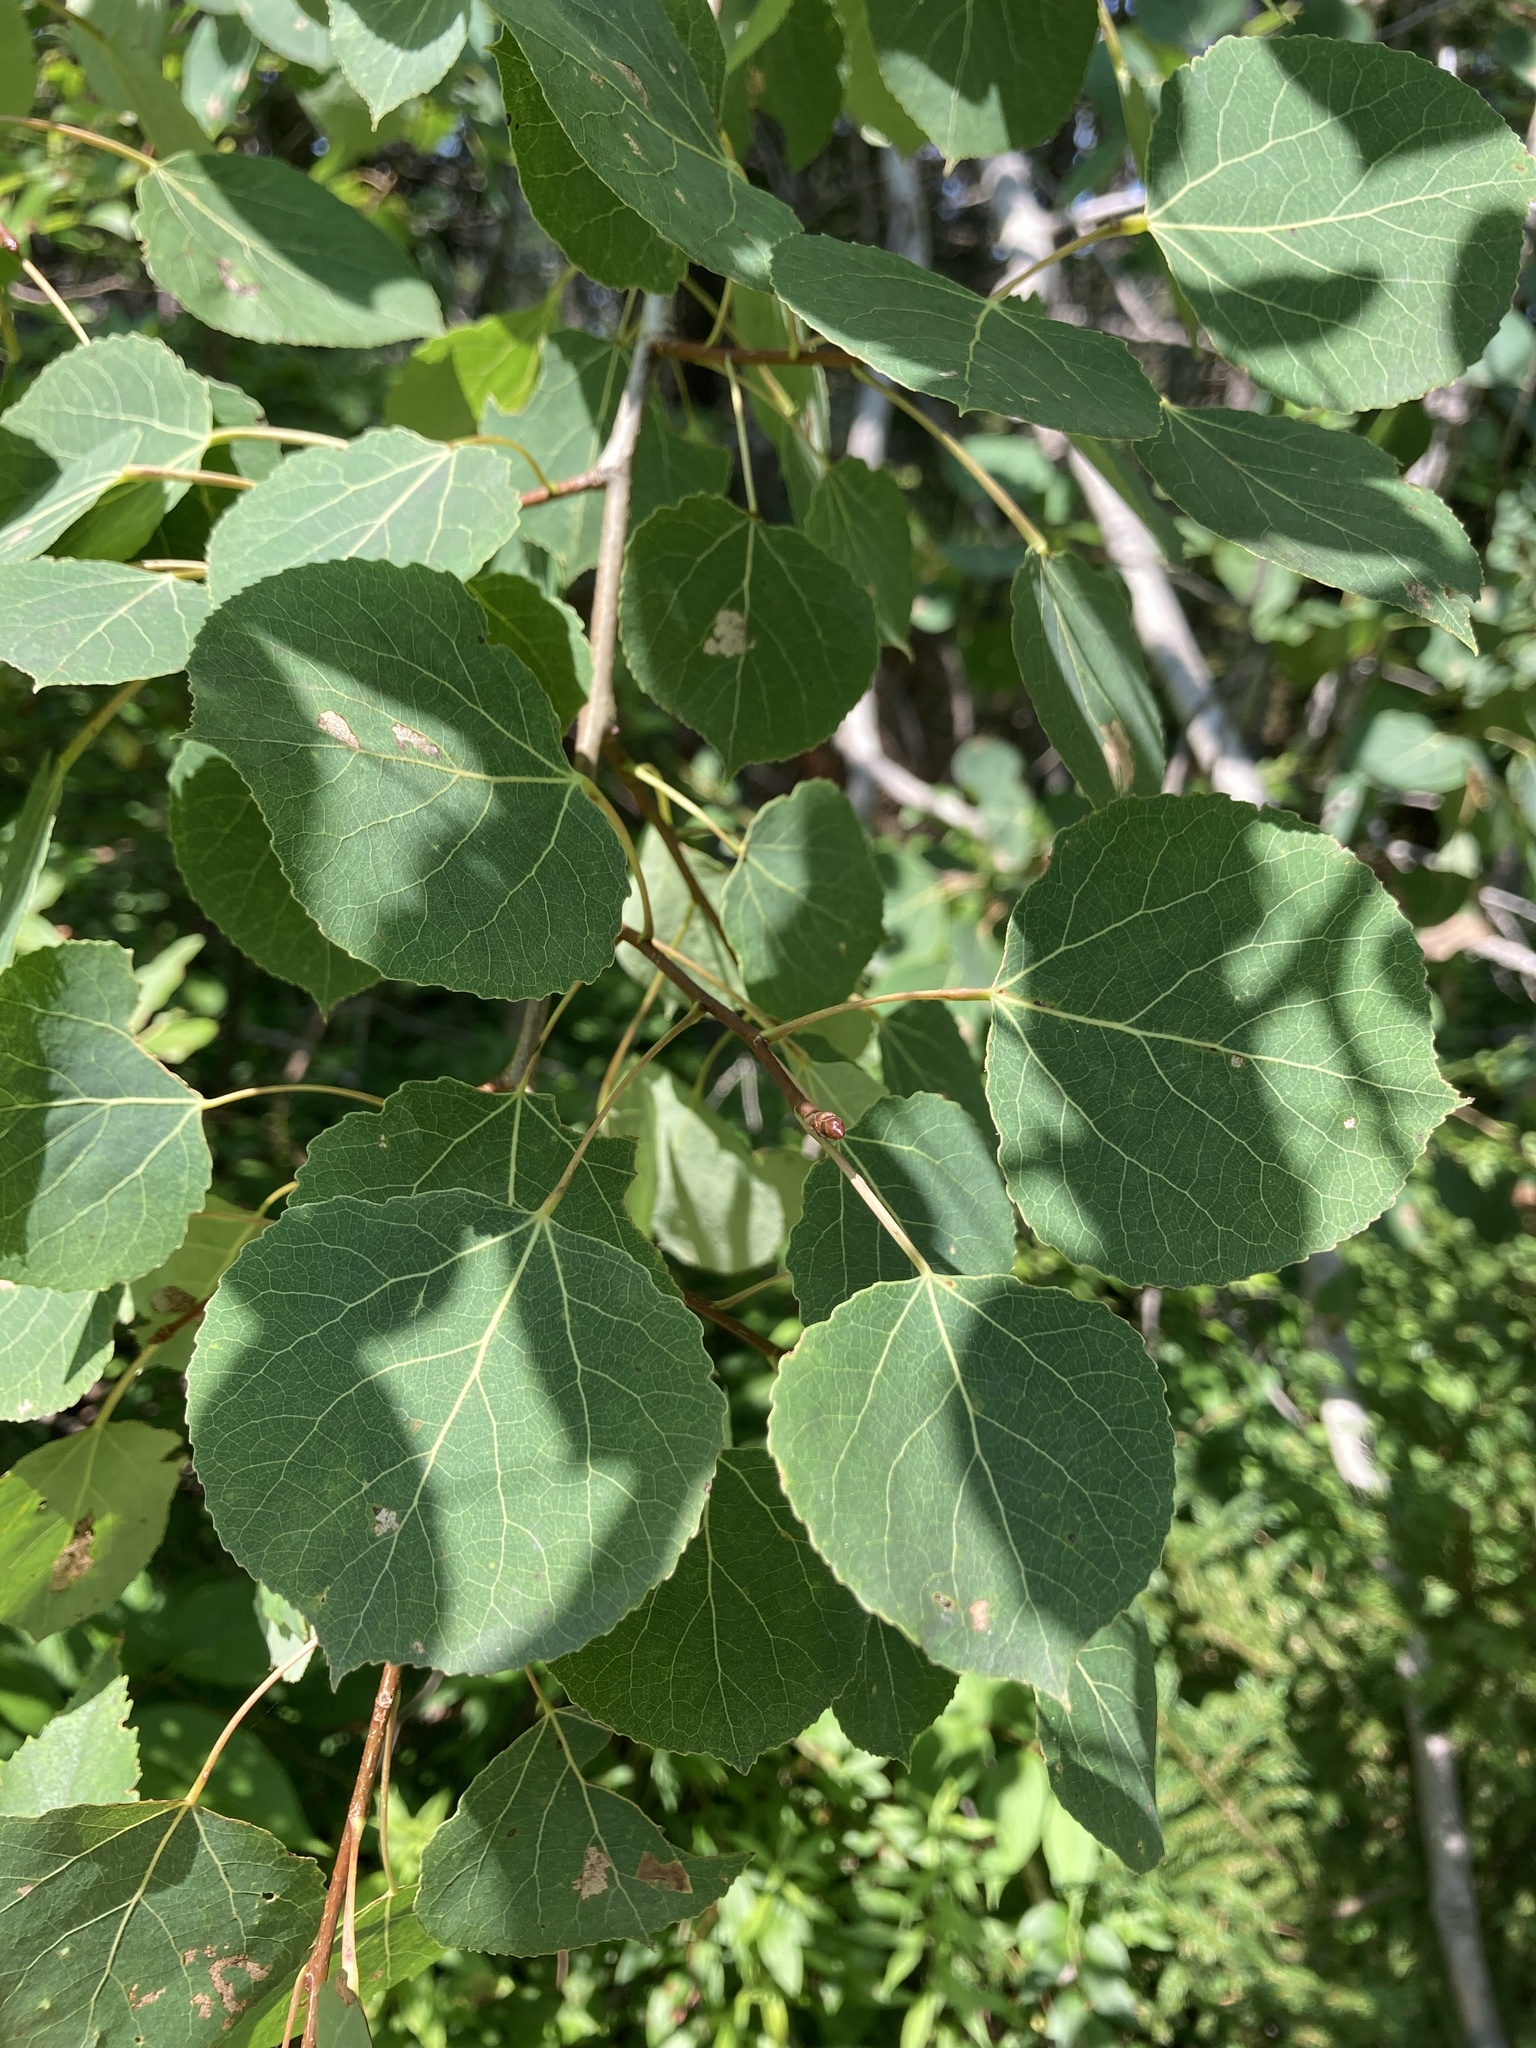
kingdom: Plantae
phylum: Tracheophyta
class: Magnoliopsida
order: Malpighiales
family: Salicaceae
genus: Populus
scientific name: Populus tremuloides
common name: Quaking aspen
